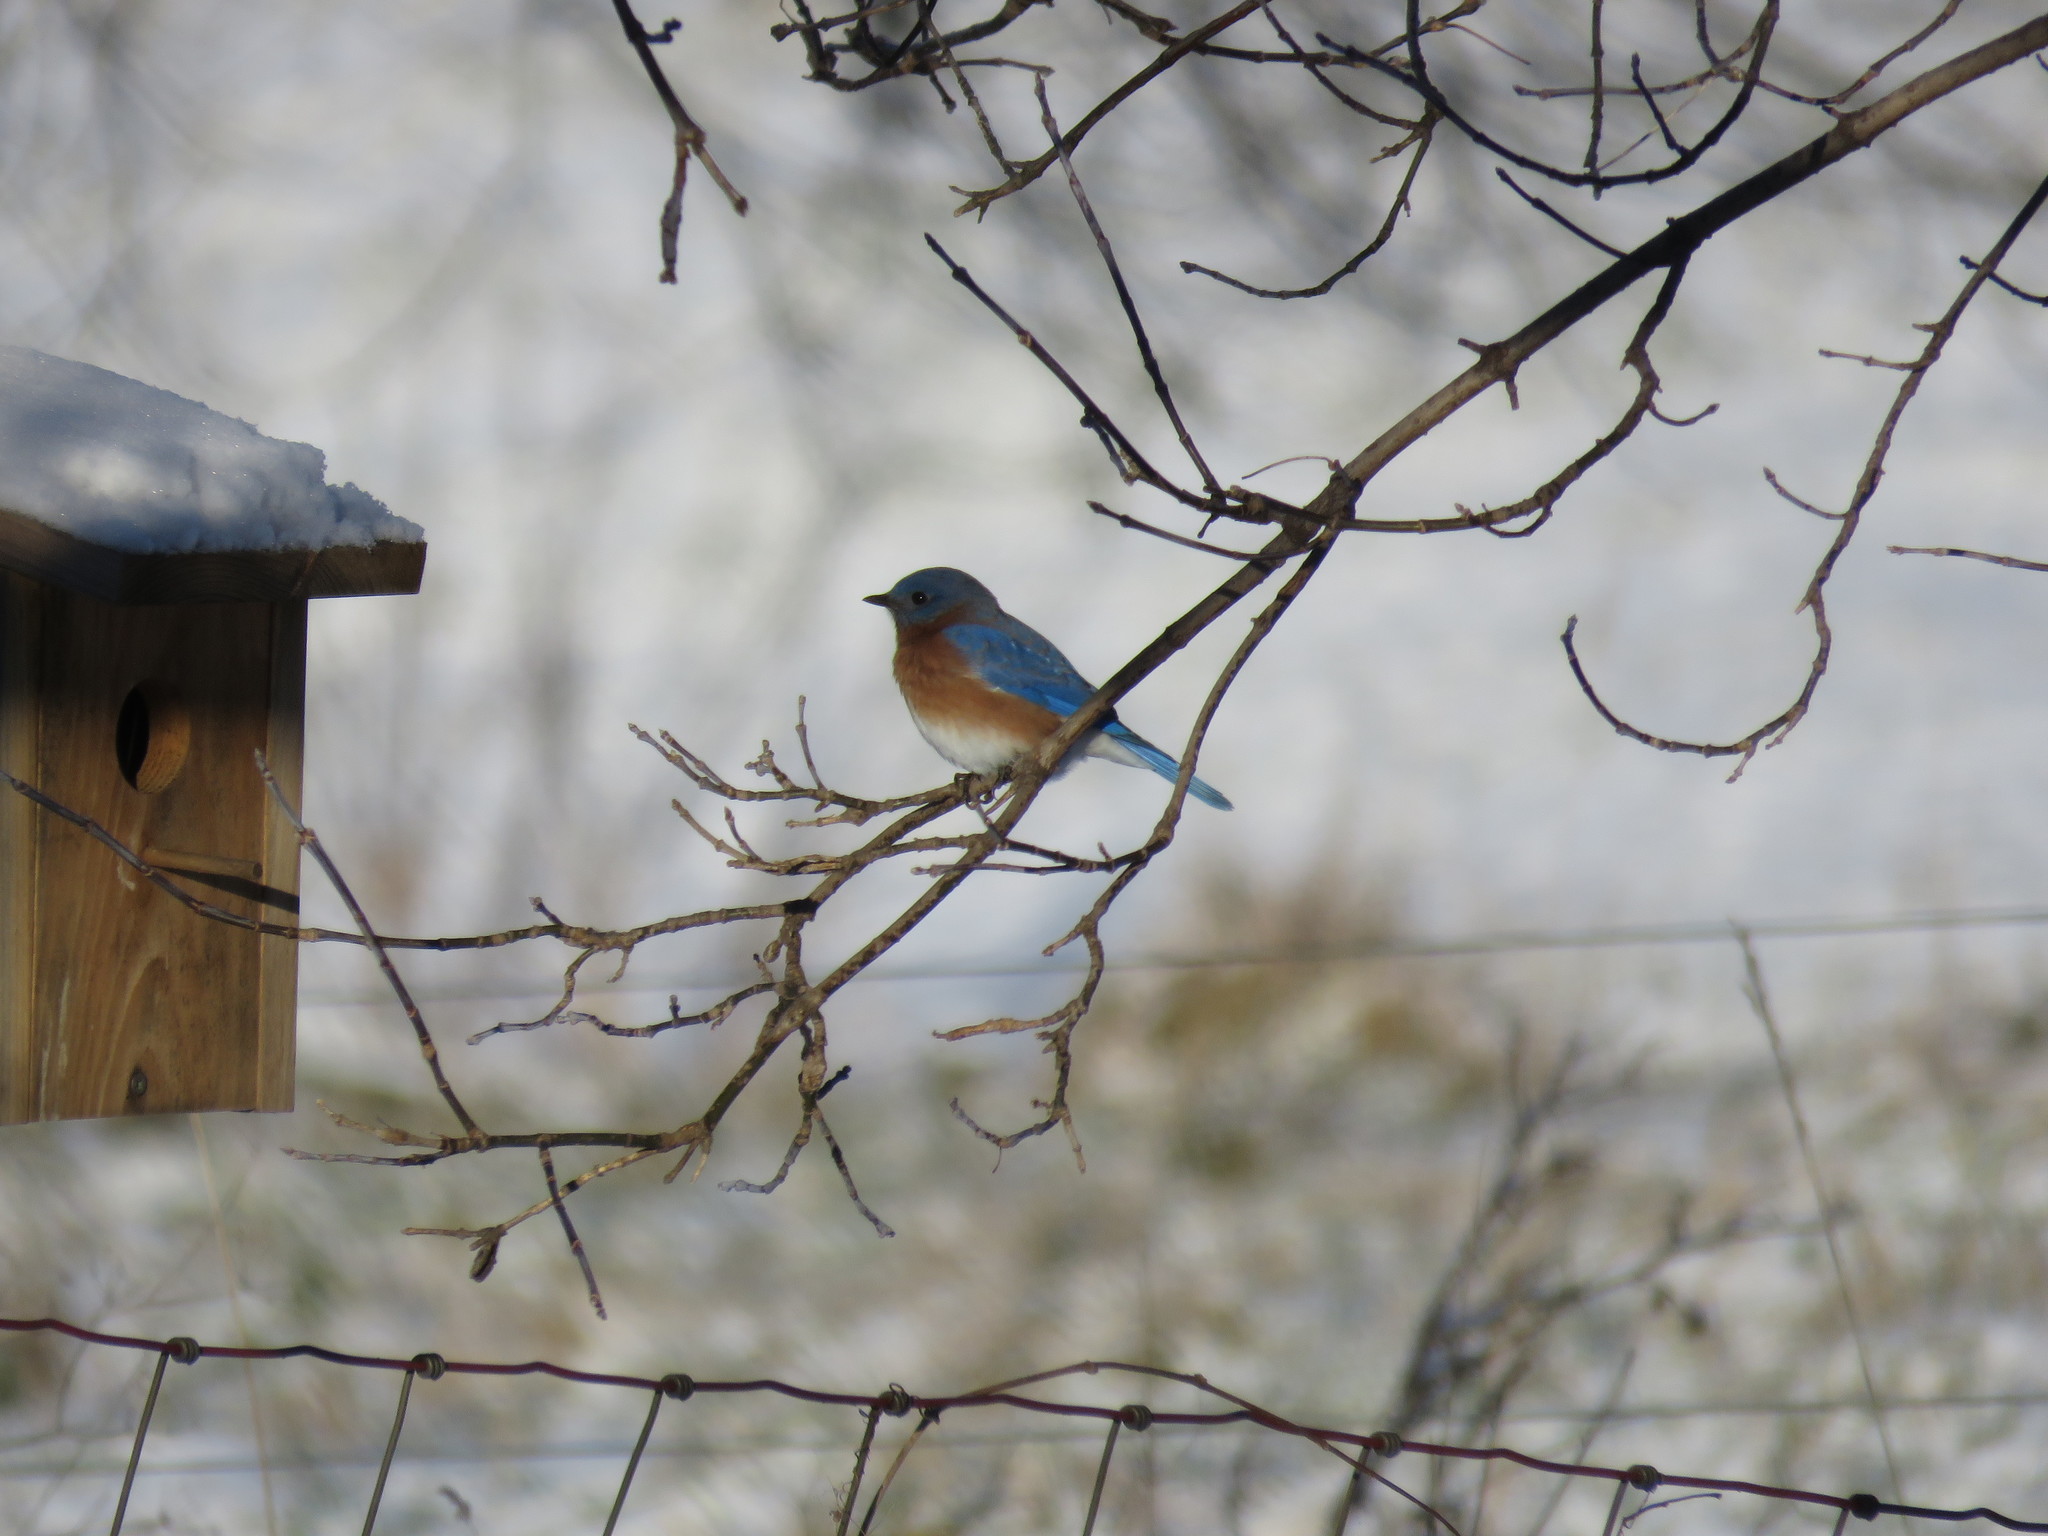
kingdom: Animalia
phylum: Chordata
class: Aves
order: Passeriformes
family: Turdidae
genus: Sialia
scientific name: Sialia sialis
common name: Eastern bluebird
